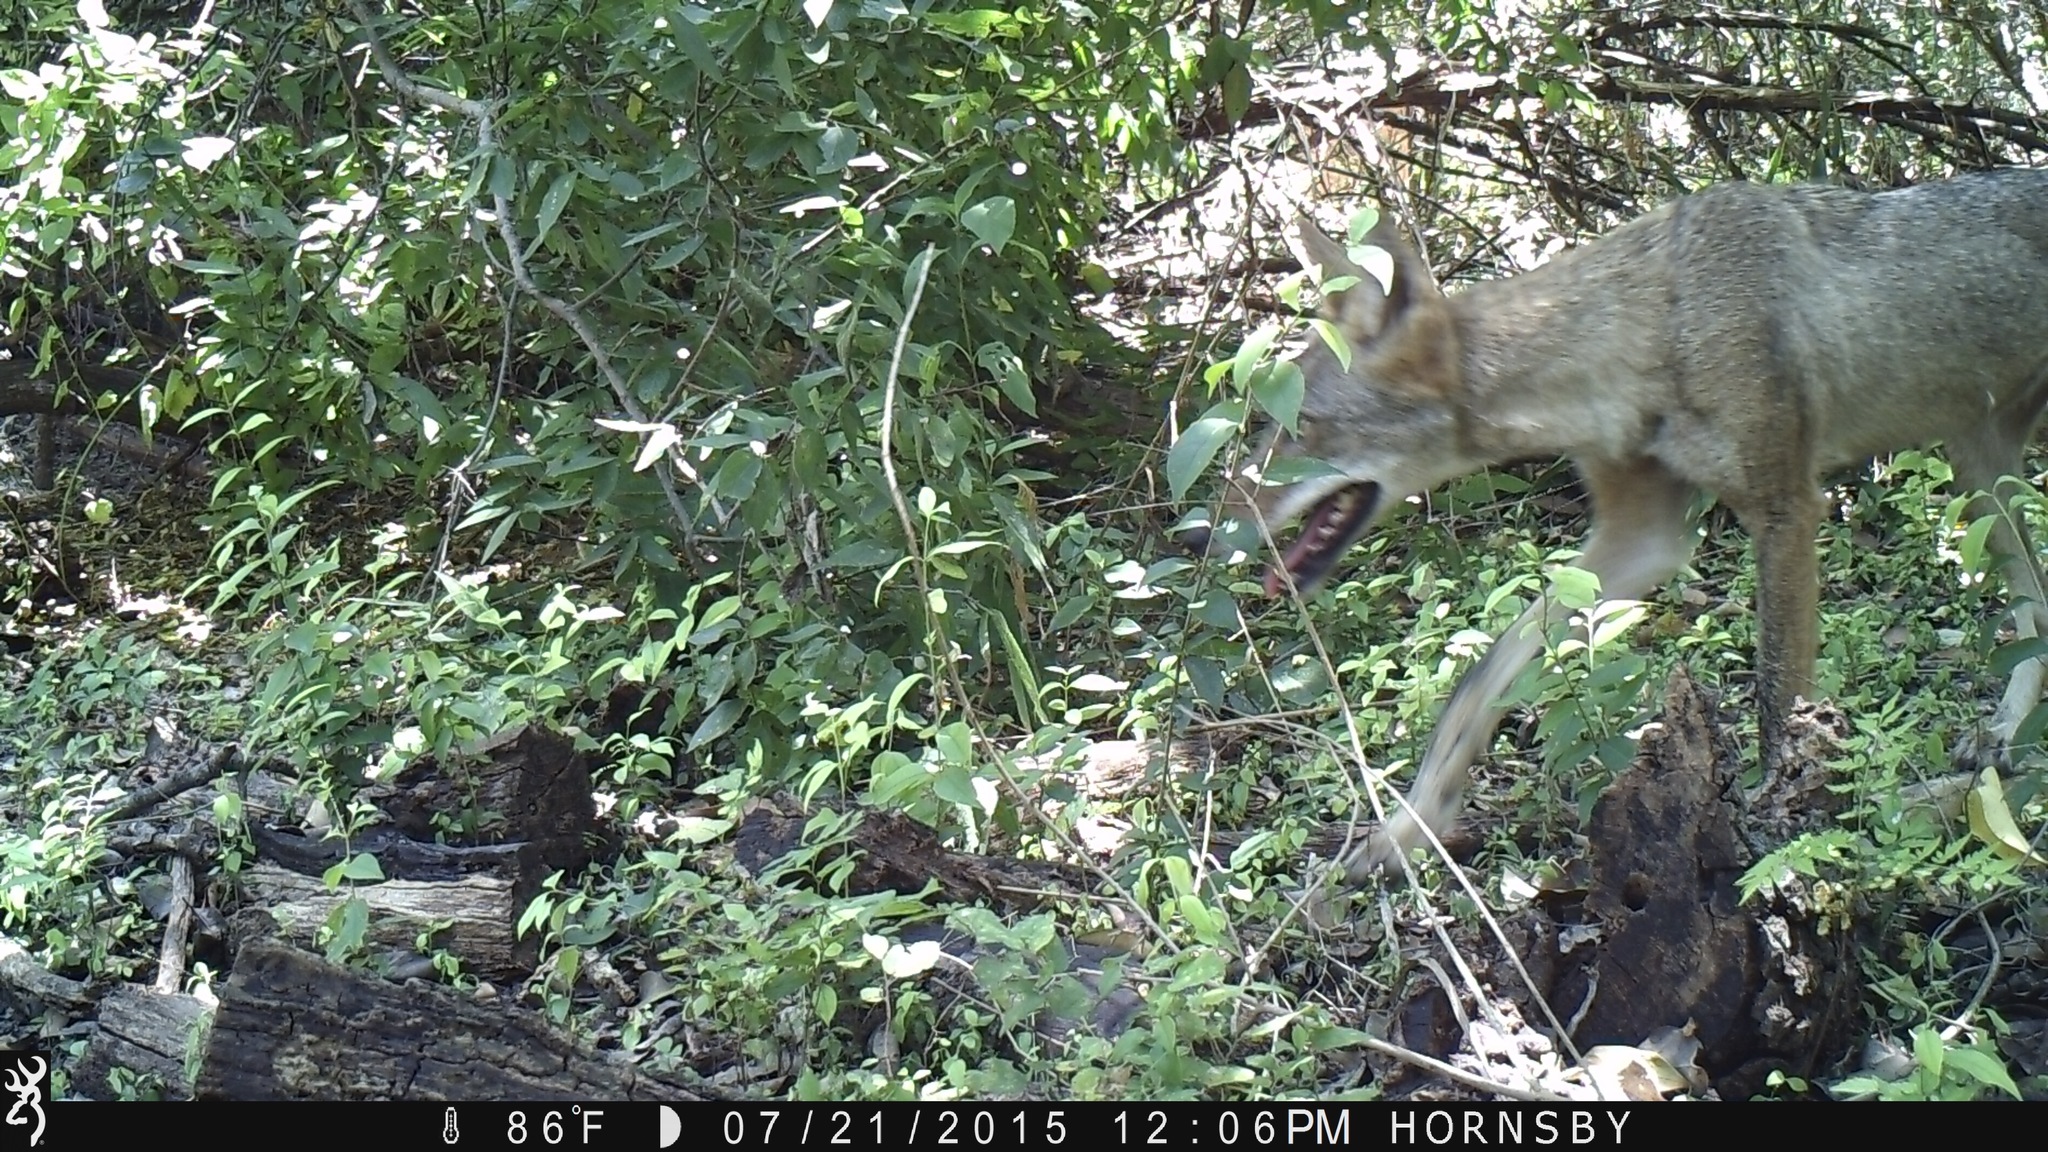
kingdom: Animalia
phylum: Chordata
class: Mammalia
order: Carnivora
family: Canidae
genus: Canis
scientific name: Canis latrans
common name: Coyote
